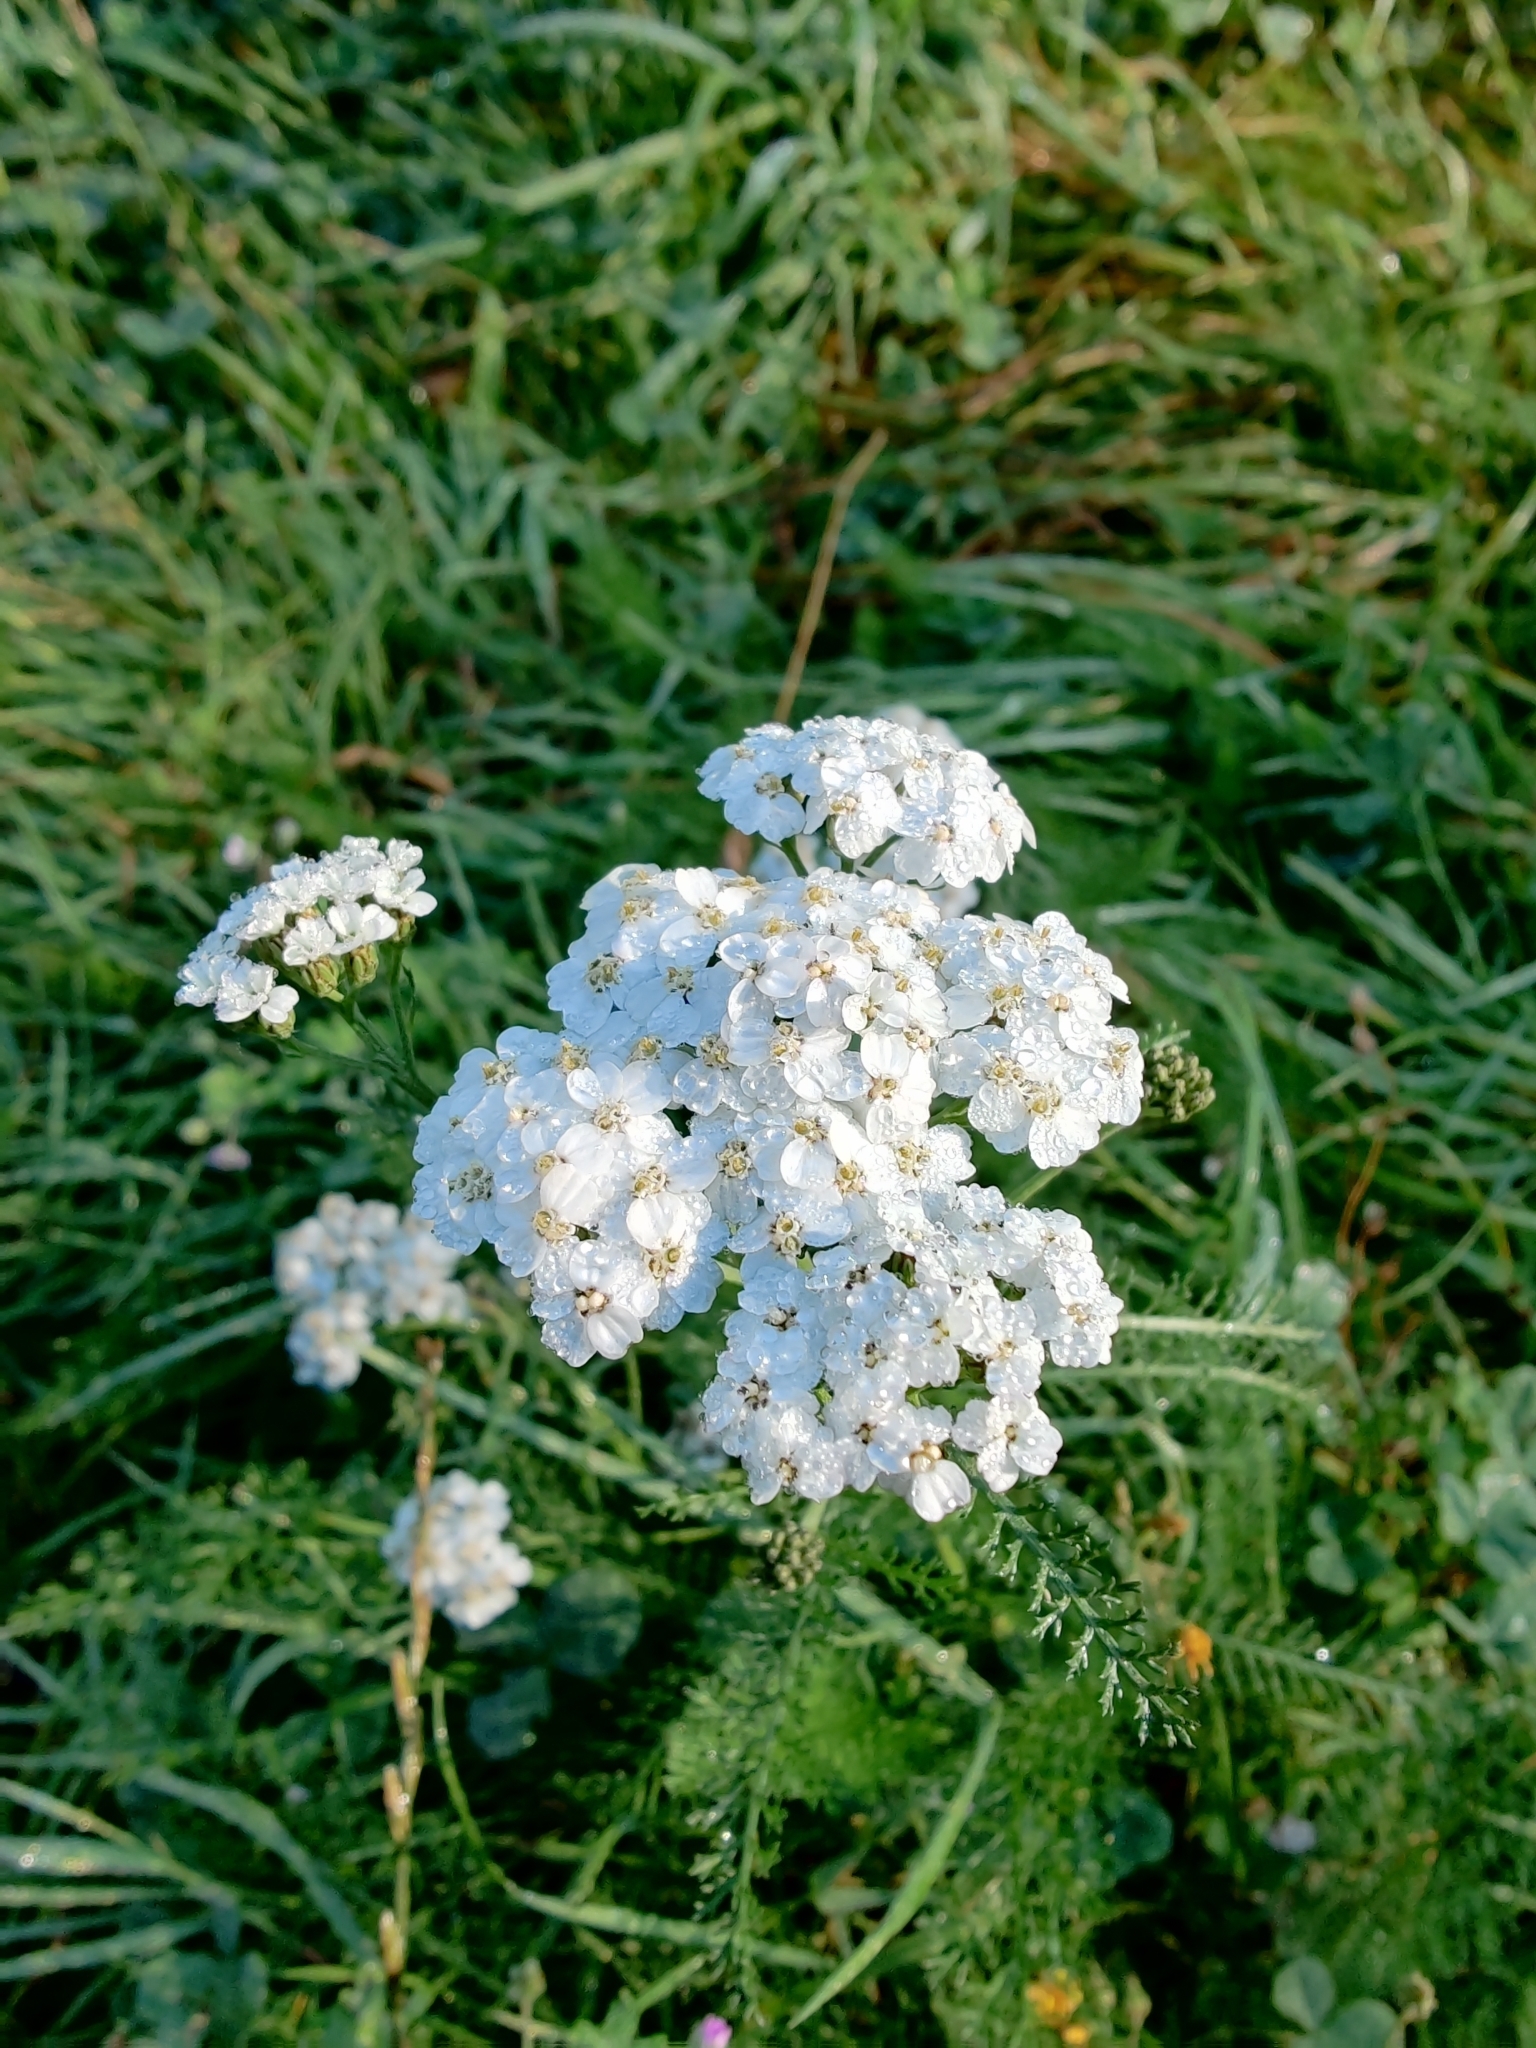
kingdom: Plantae
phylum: Tracheophyta
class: Magnoliopsida
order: Asterales
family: Asteraceae
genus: Achillea
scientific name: Achillea millefolium
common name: Yarrow
